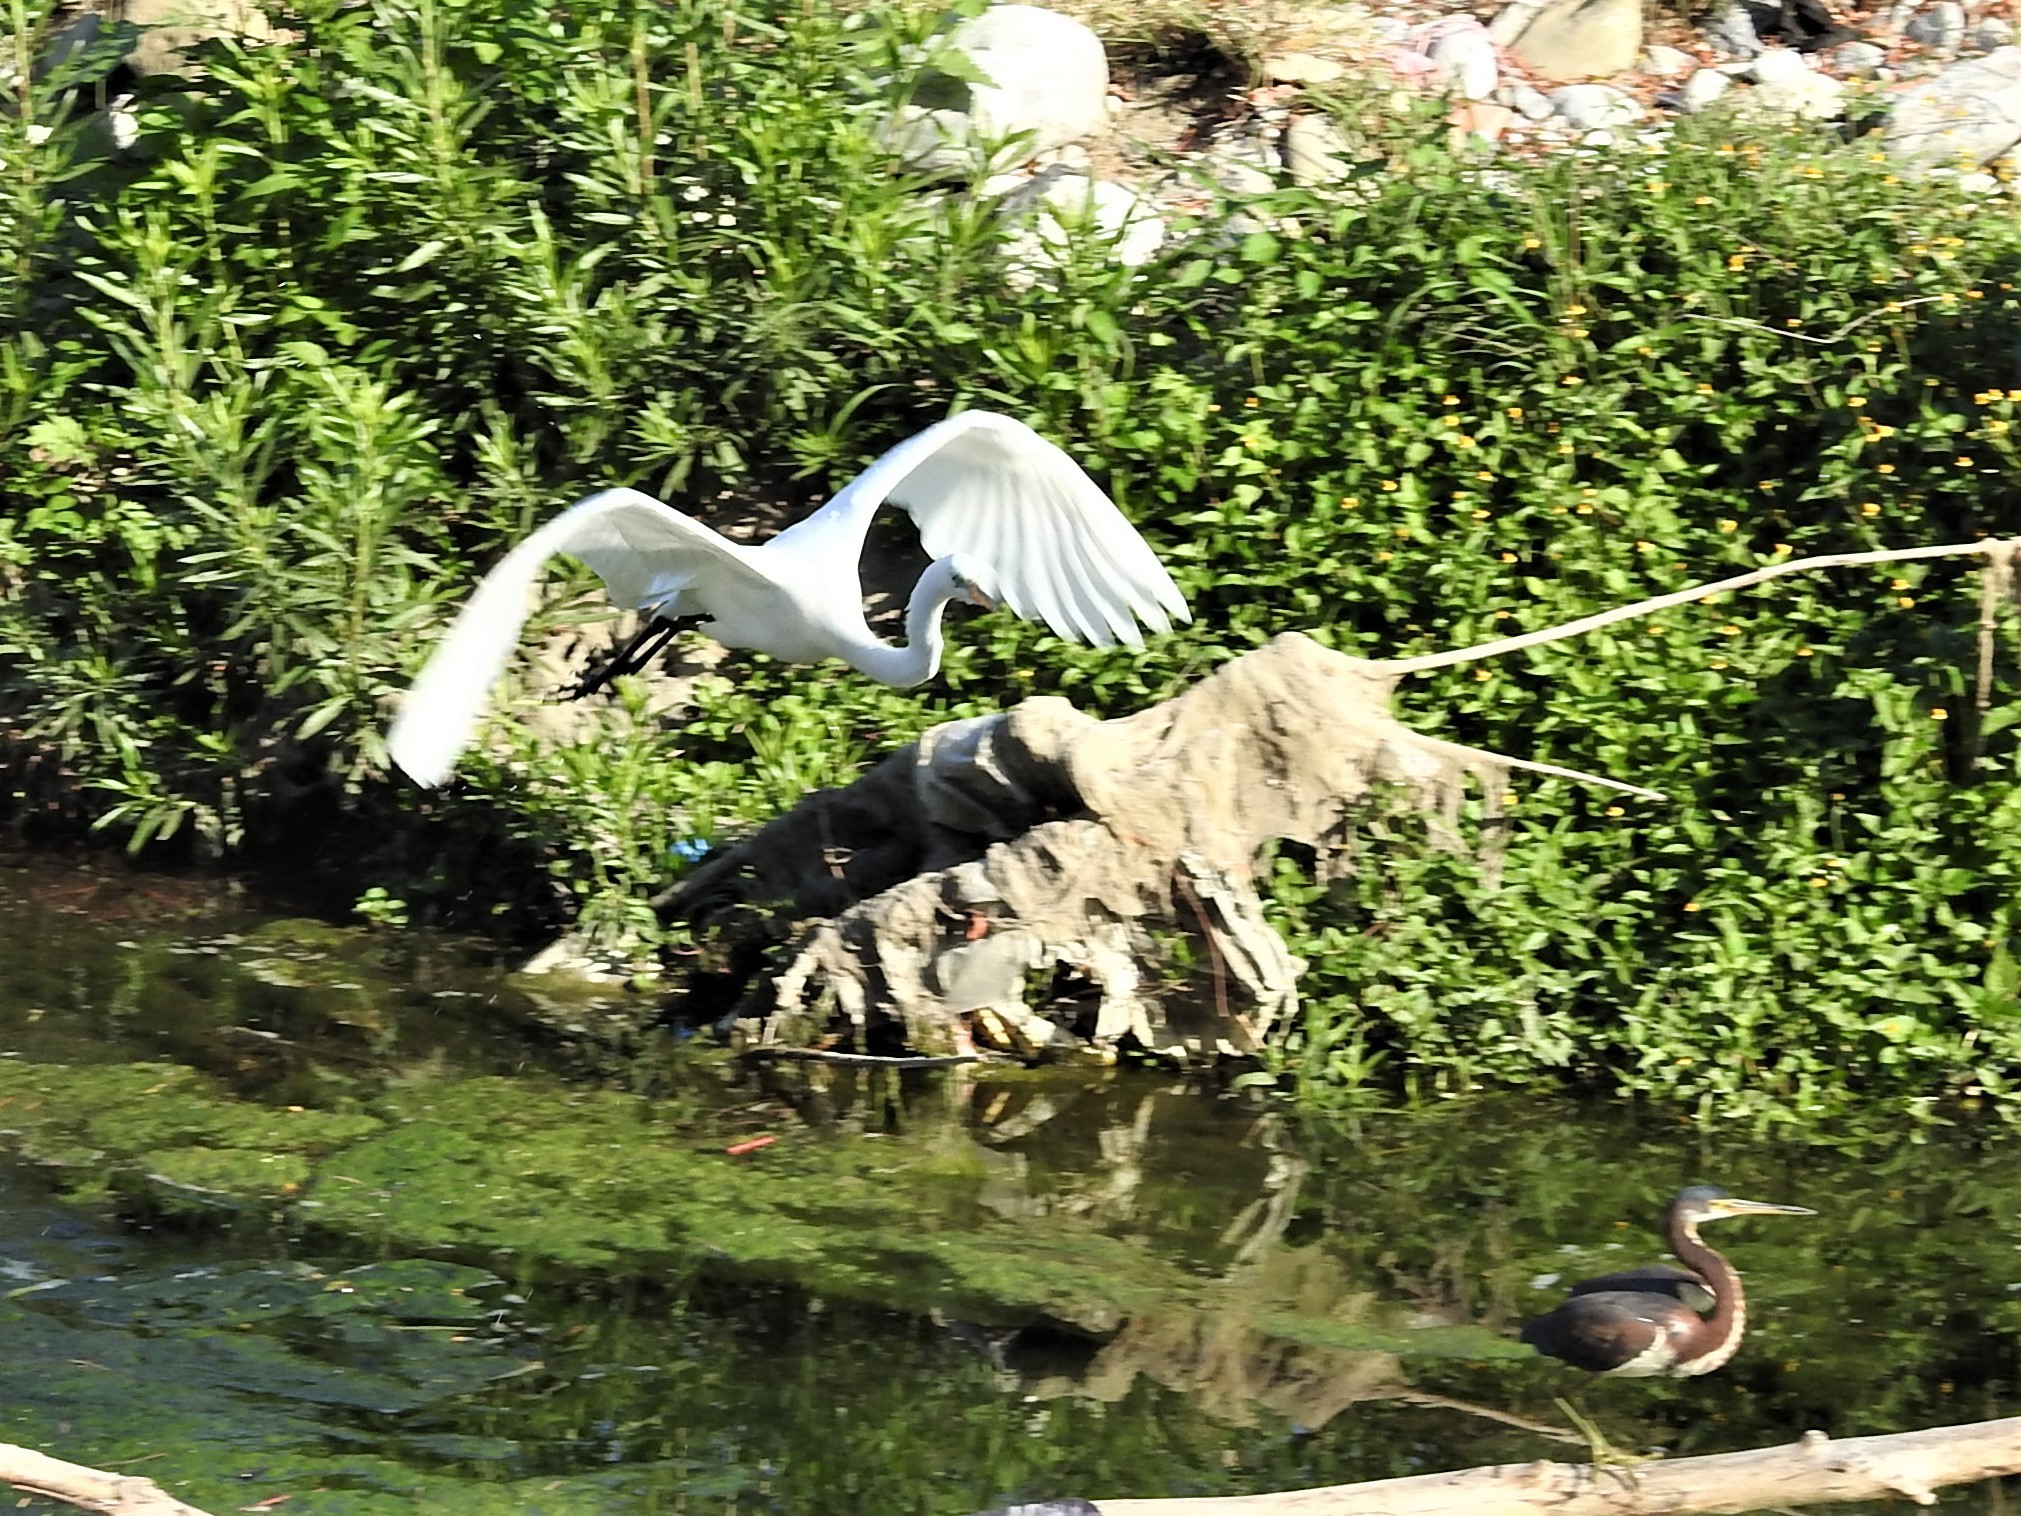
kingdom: Animalia
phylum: Chordata
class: Aves
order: Pelecaniformes
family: Ardeidae
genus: Ardea
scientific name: Ardea alba
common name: Great egret
